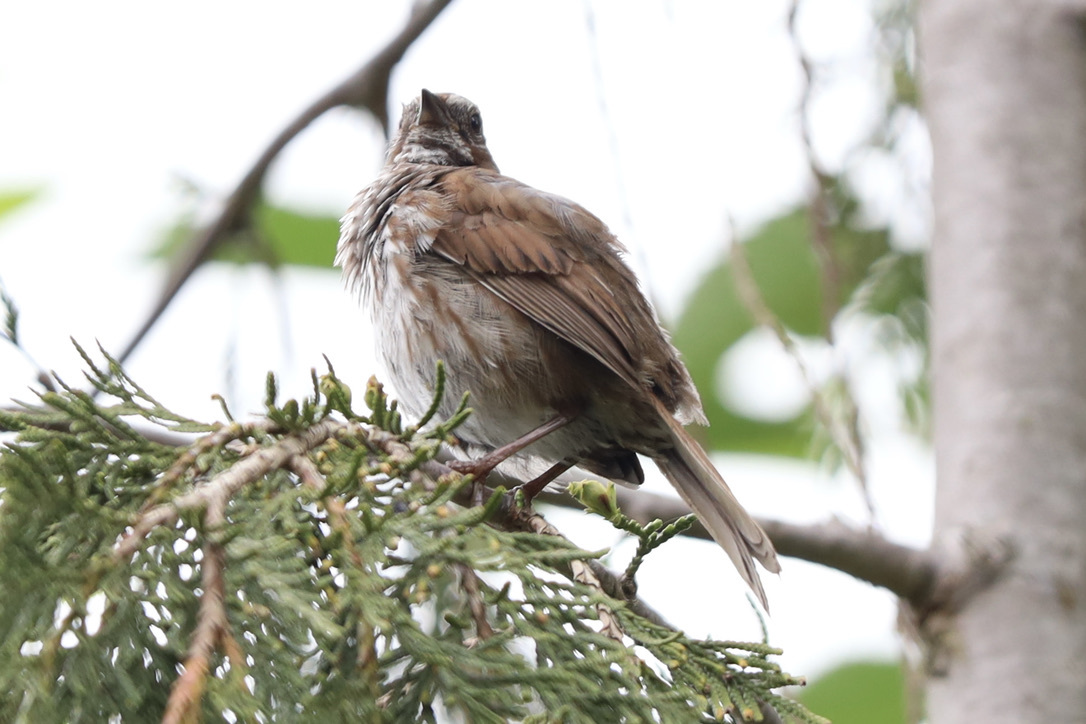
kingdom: Animalia
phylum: Chordata
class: Aves
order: Passeriformes
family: Passerellidae
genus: Melospiza
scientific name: Melospiza melodia
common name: Song sparrow
